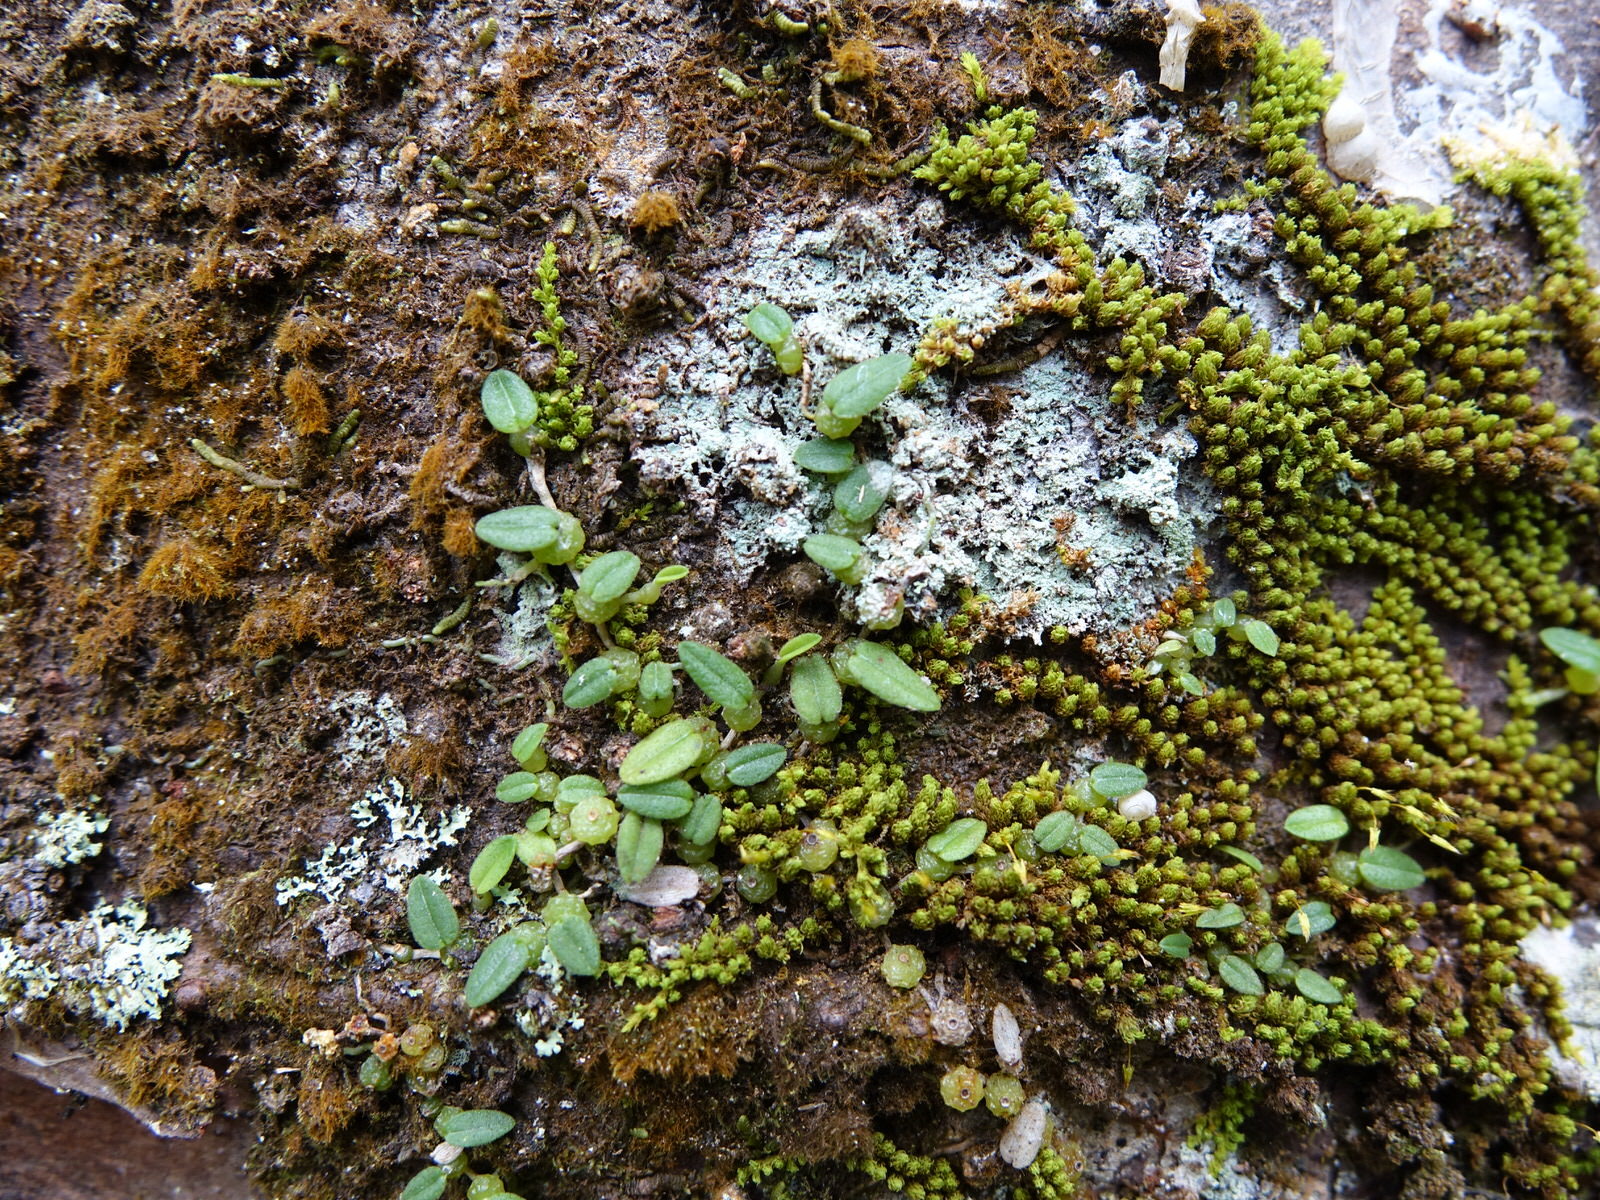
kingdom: Plantae
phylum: Tracheophyta
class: Liliopsida
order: Asparagales
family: Orchidaceae
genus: Bulbophyllum
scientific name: Bulbophyllum pygmaeum
